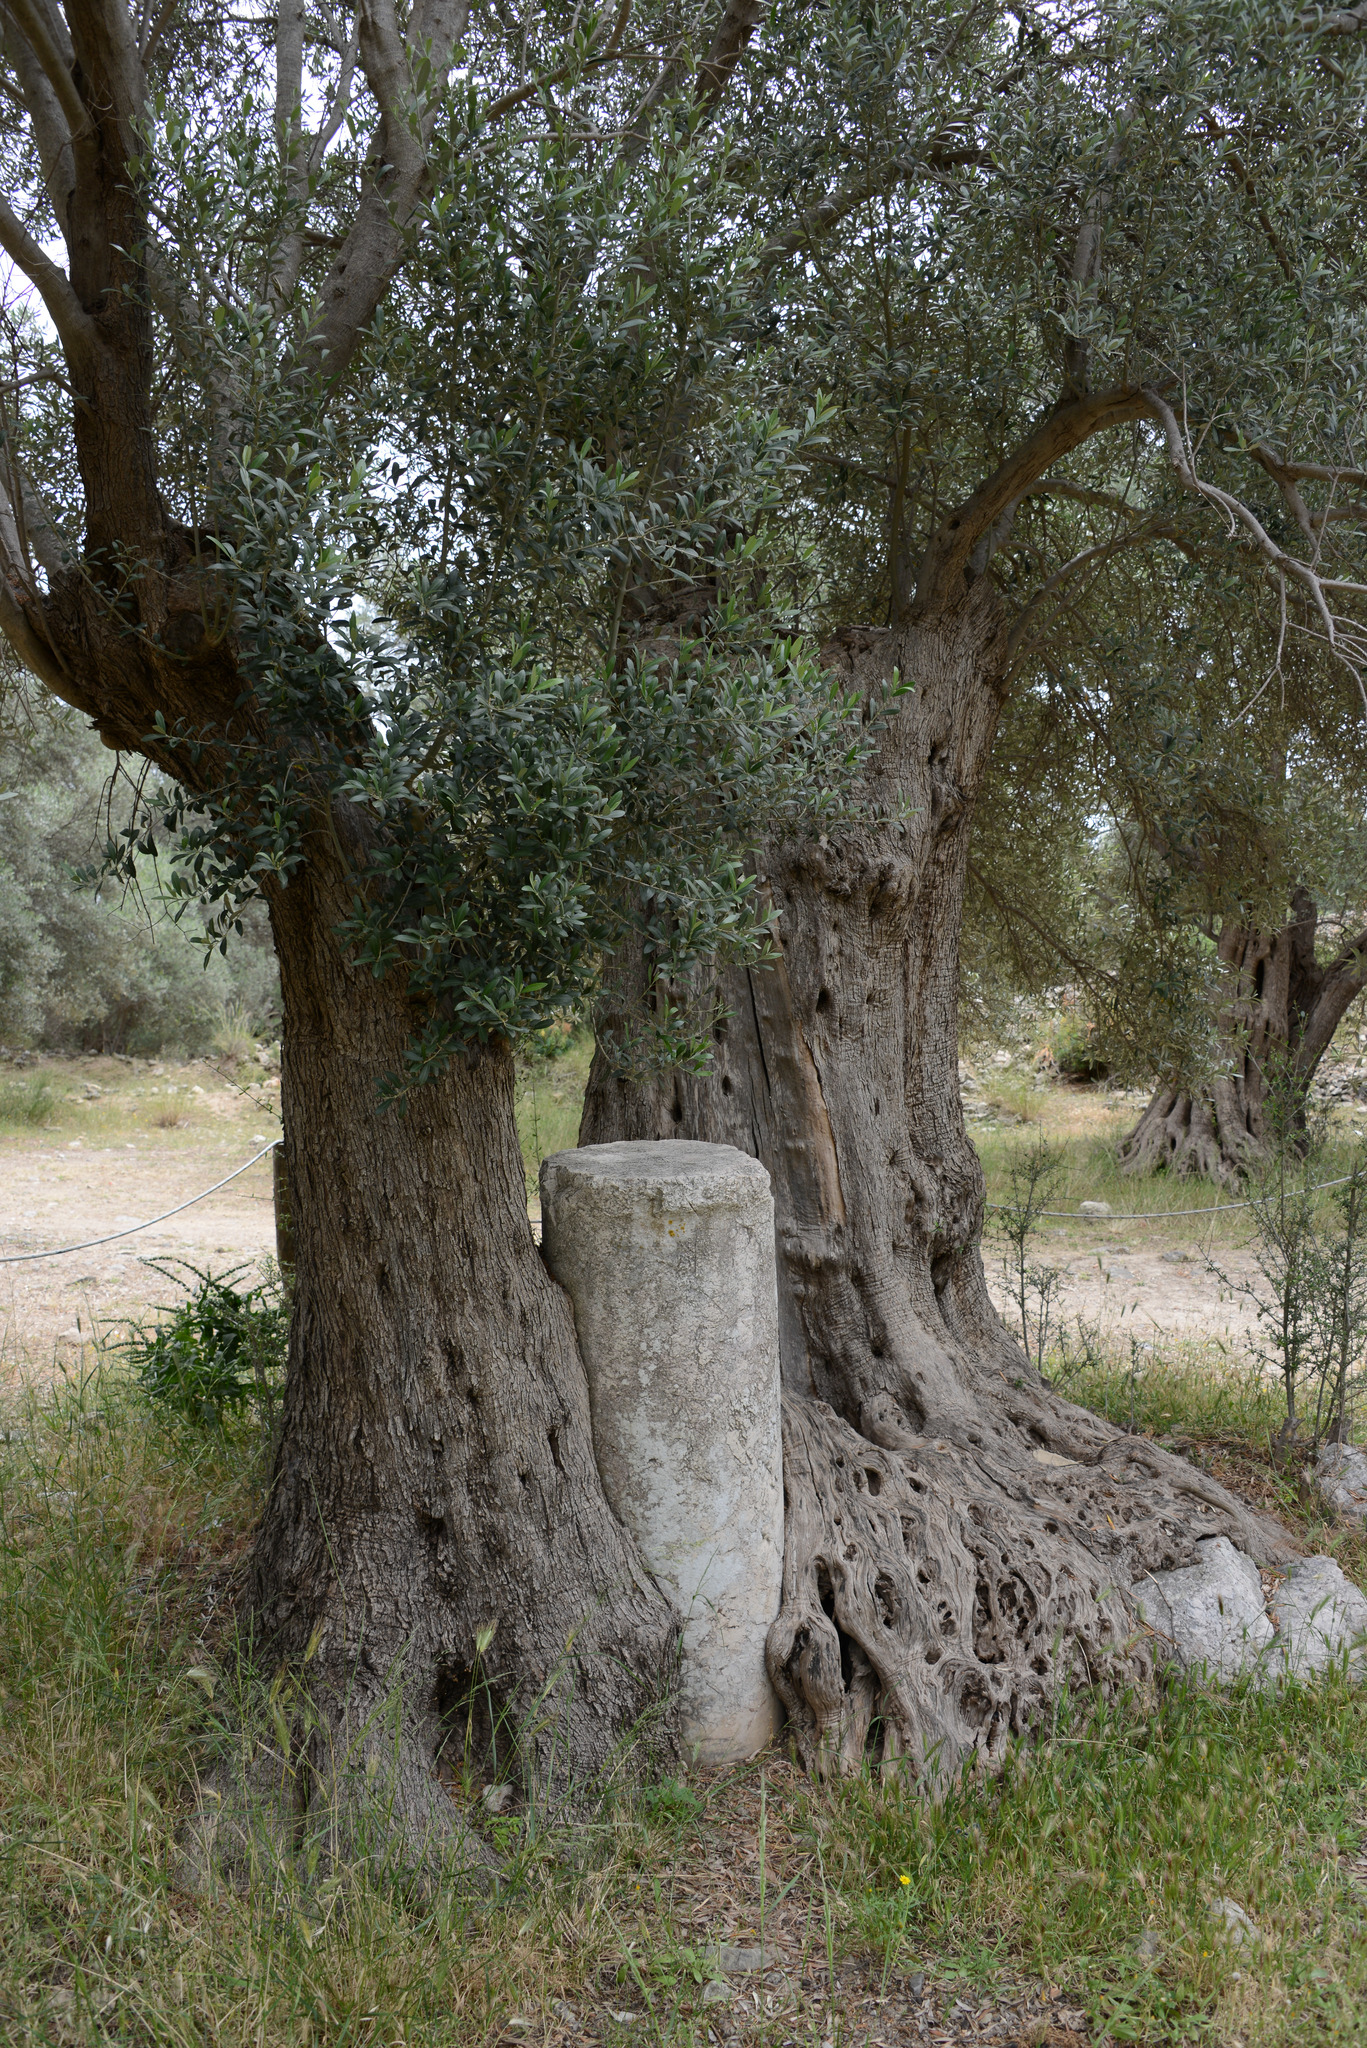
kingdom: Plantae
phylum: Tracheophyta
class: Magnoliopsida
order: Lamiales
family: Oleaceae
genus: Olea
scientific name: Olea europaea
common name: Olive
